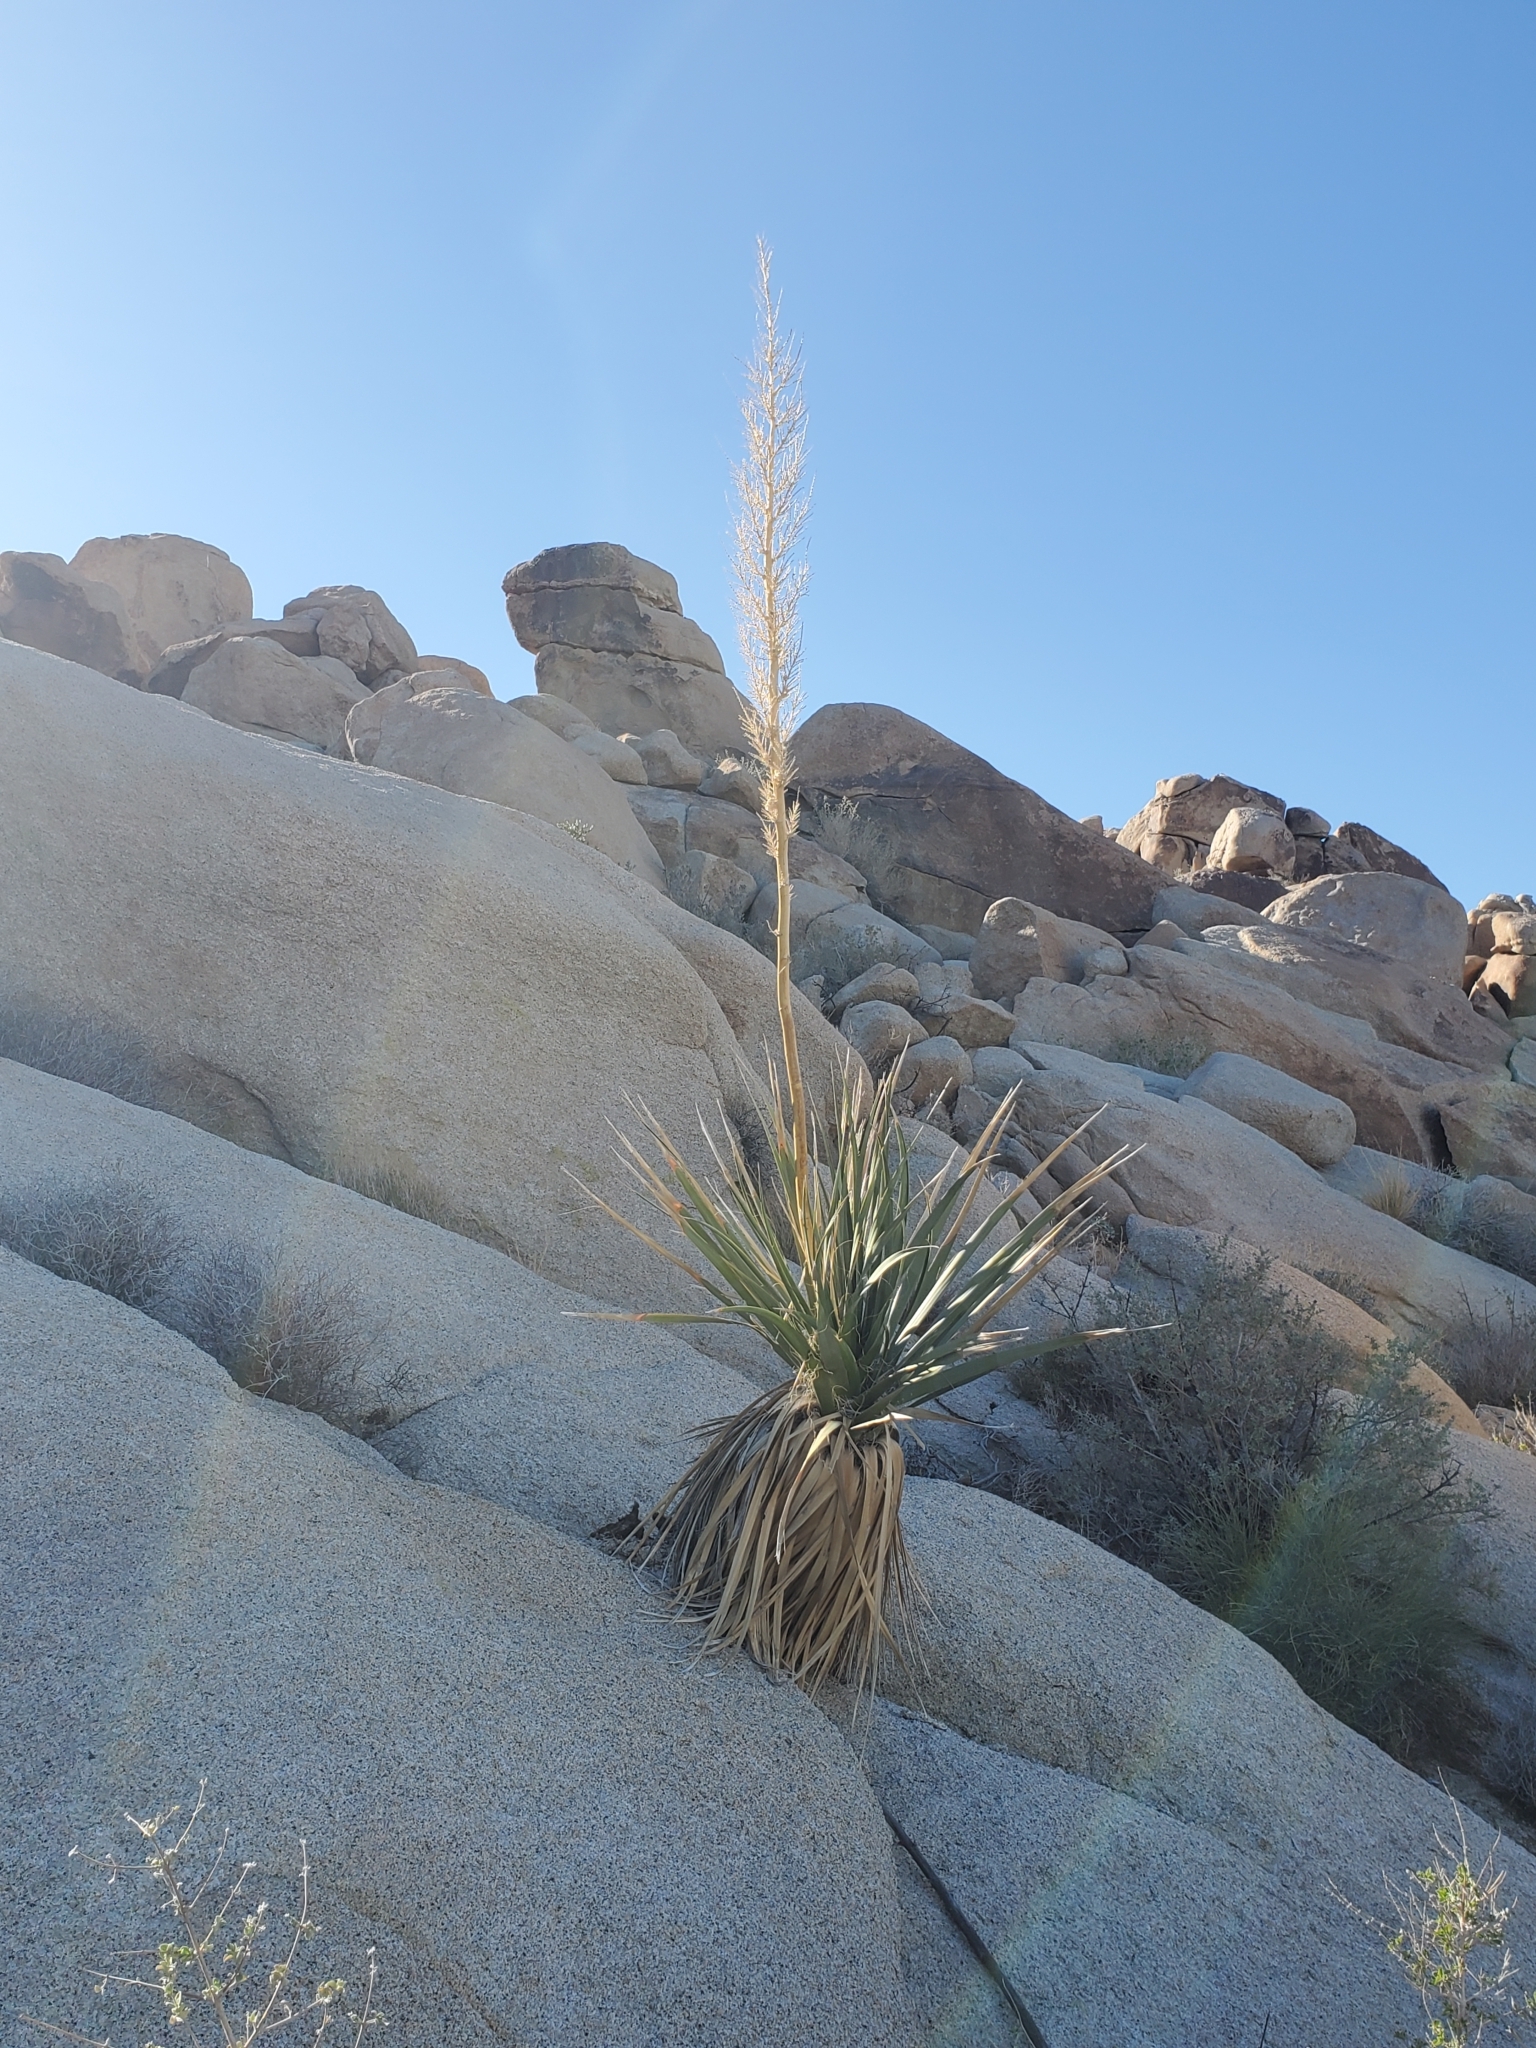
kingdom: Plantae
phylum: Tracheophyta
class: Liliopsida
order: Asparagales
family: Asparagaceae
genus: Nolina
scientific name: Nolina bigelovii
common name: Bigelow bear-grass
